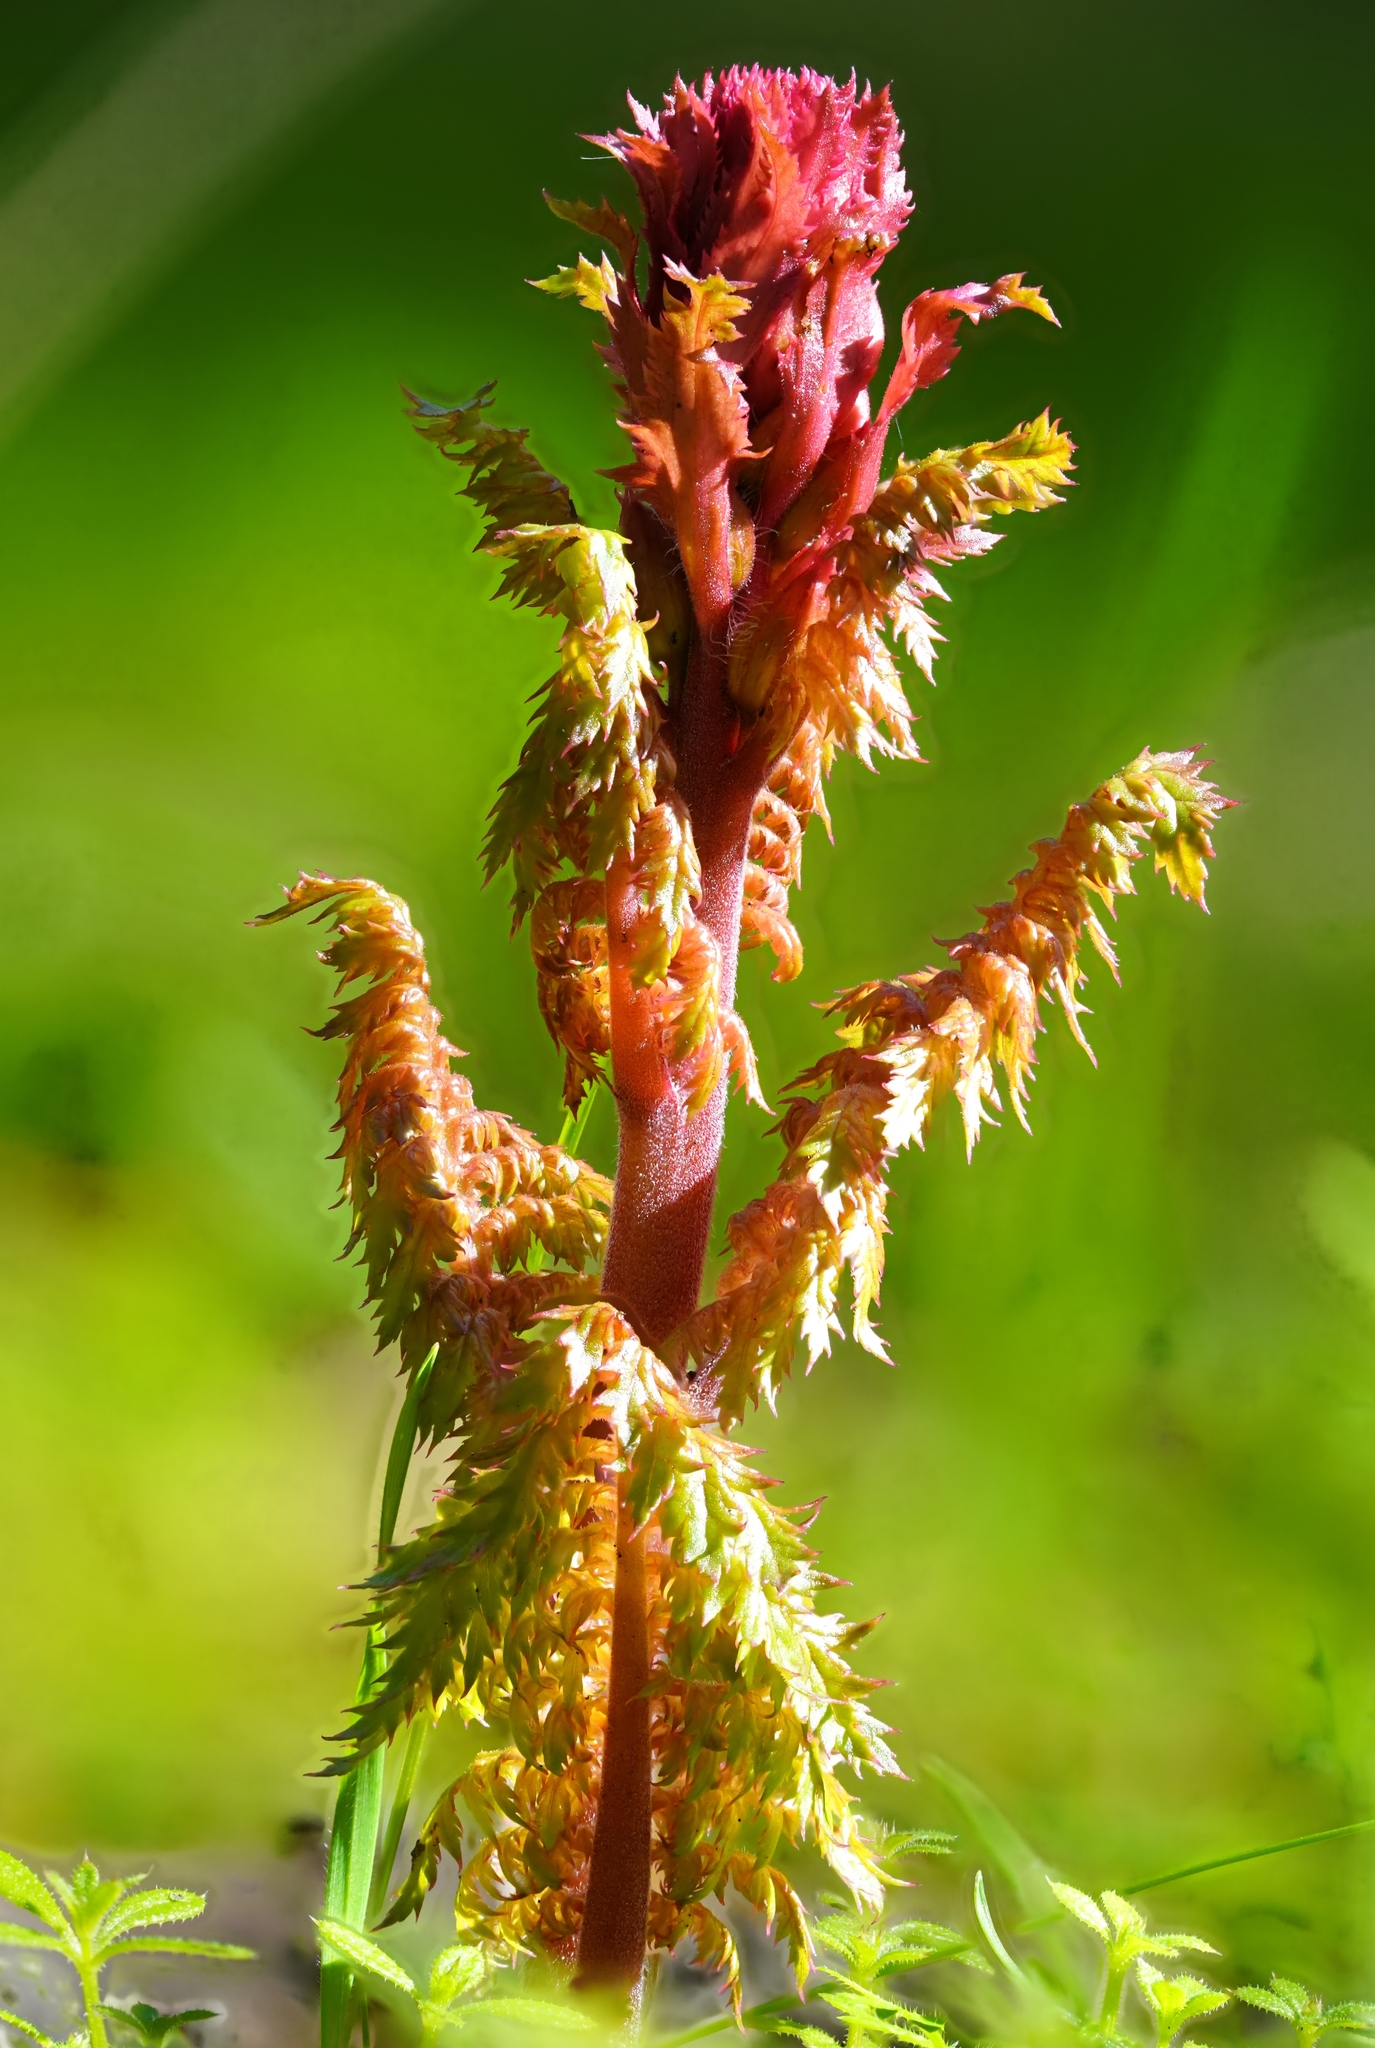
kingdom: Plantae
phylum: Tracheophyta
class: Magnoliopsida
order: Lamiales
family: Orobanchaceae
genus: Pedicularis
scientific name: Pedicularis densiflora
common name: Indian warrior
